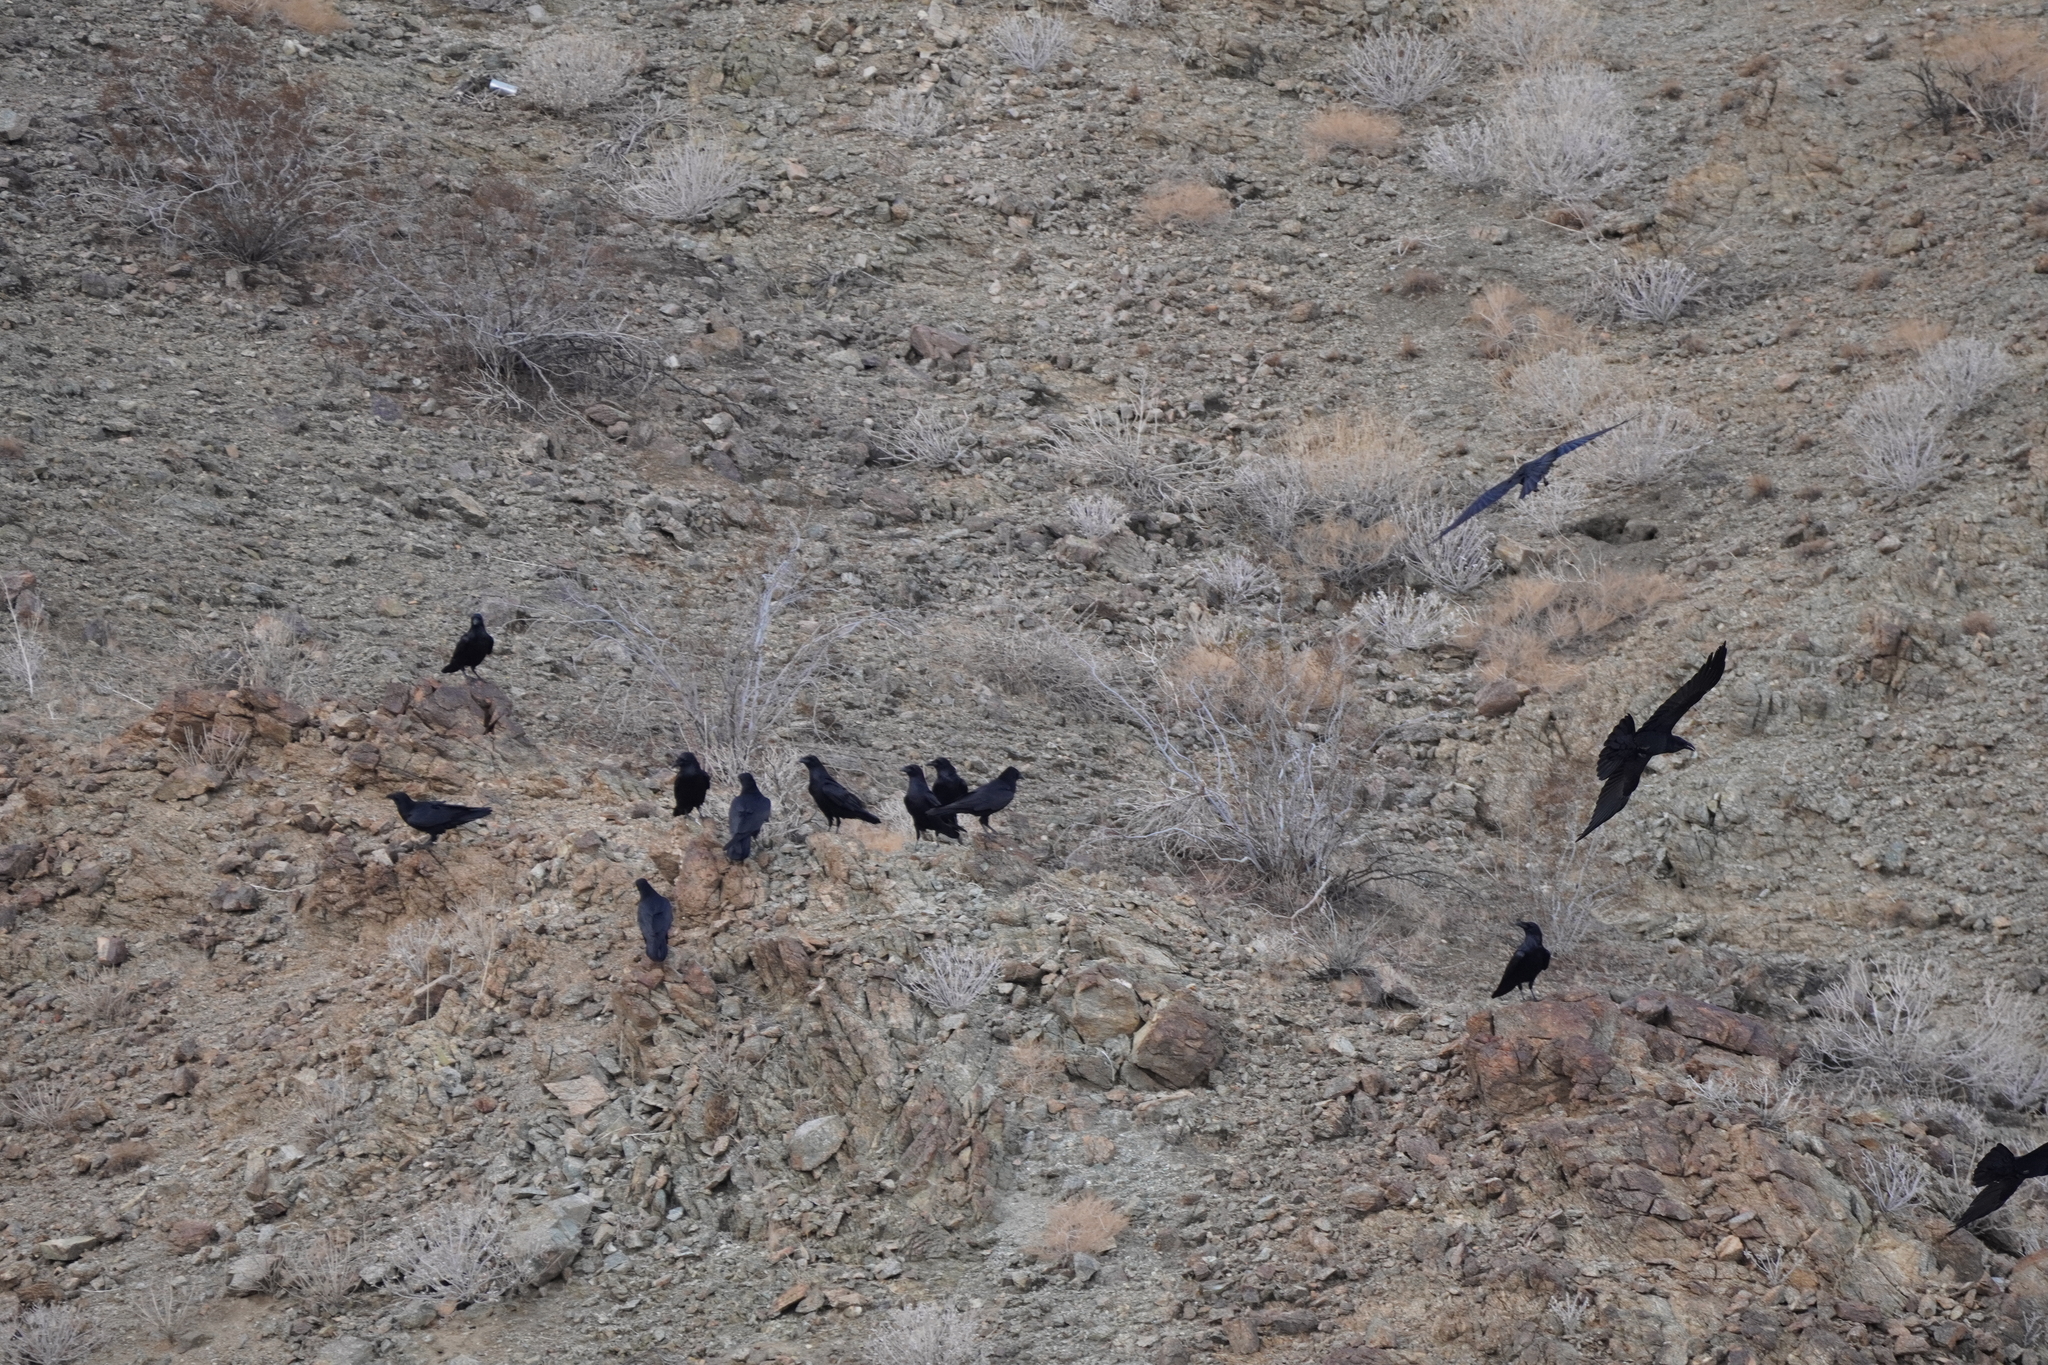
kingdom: Animalia
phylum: Chordata
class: Aves
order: Passeriformes
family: Corvidae
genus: Corvus
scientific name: Corvus corax
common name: Common raven
